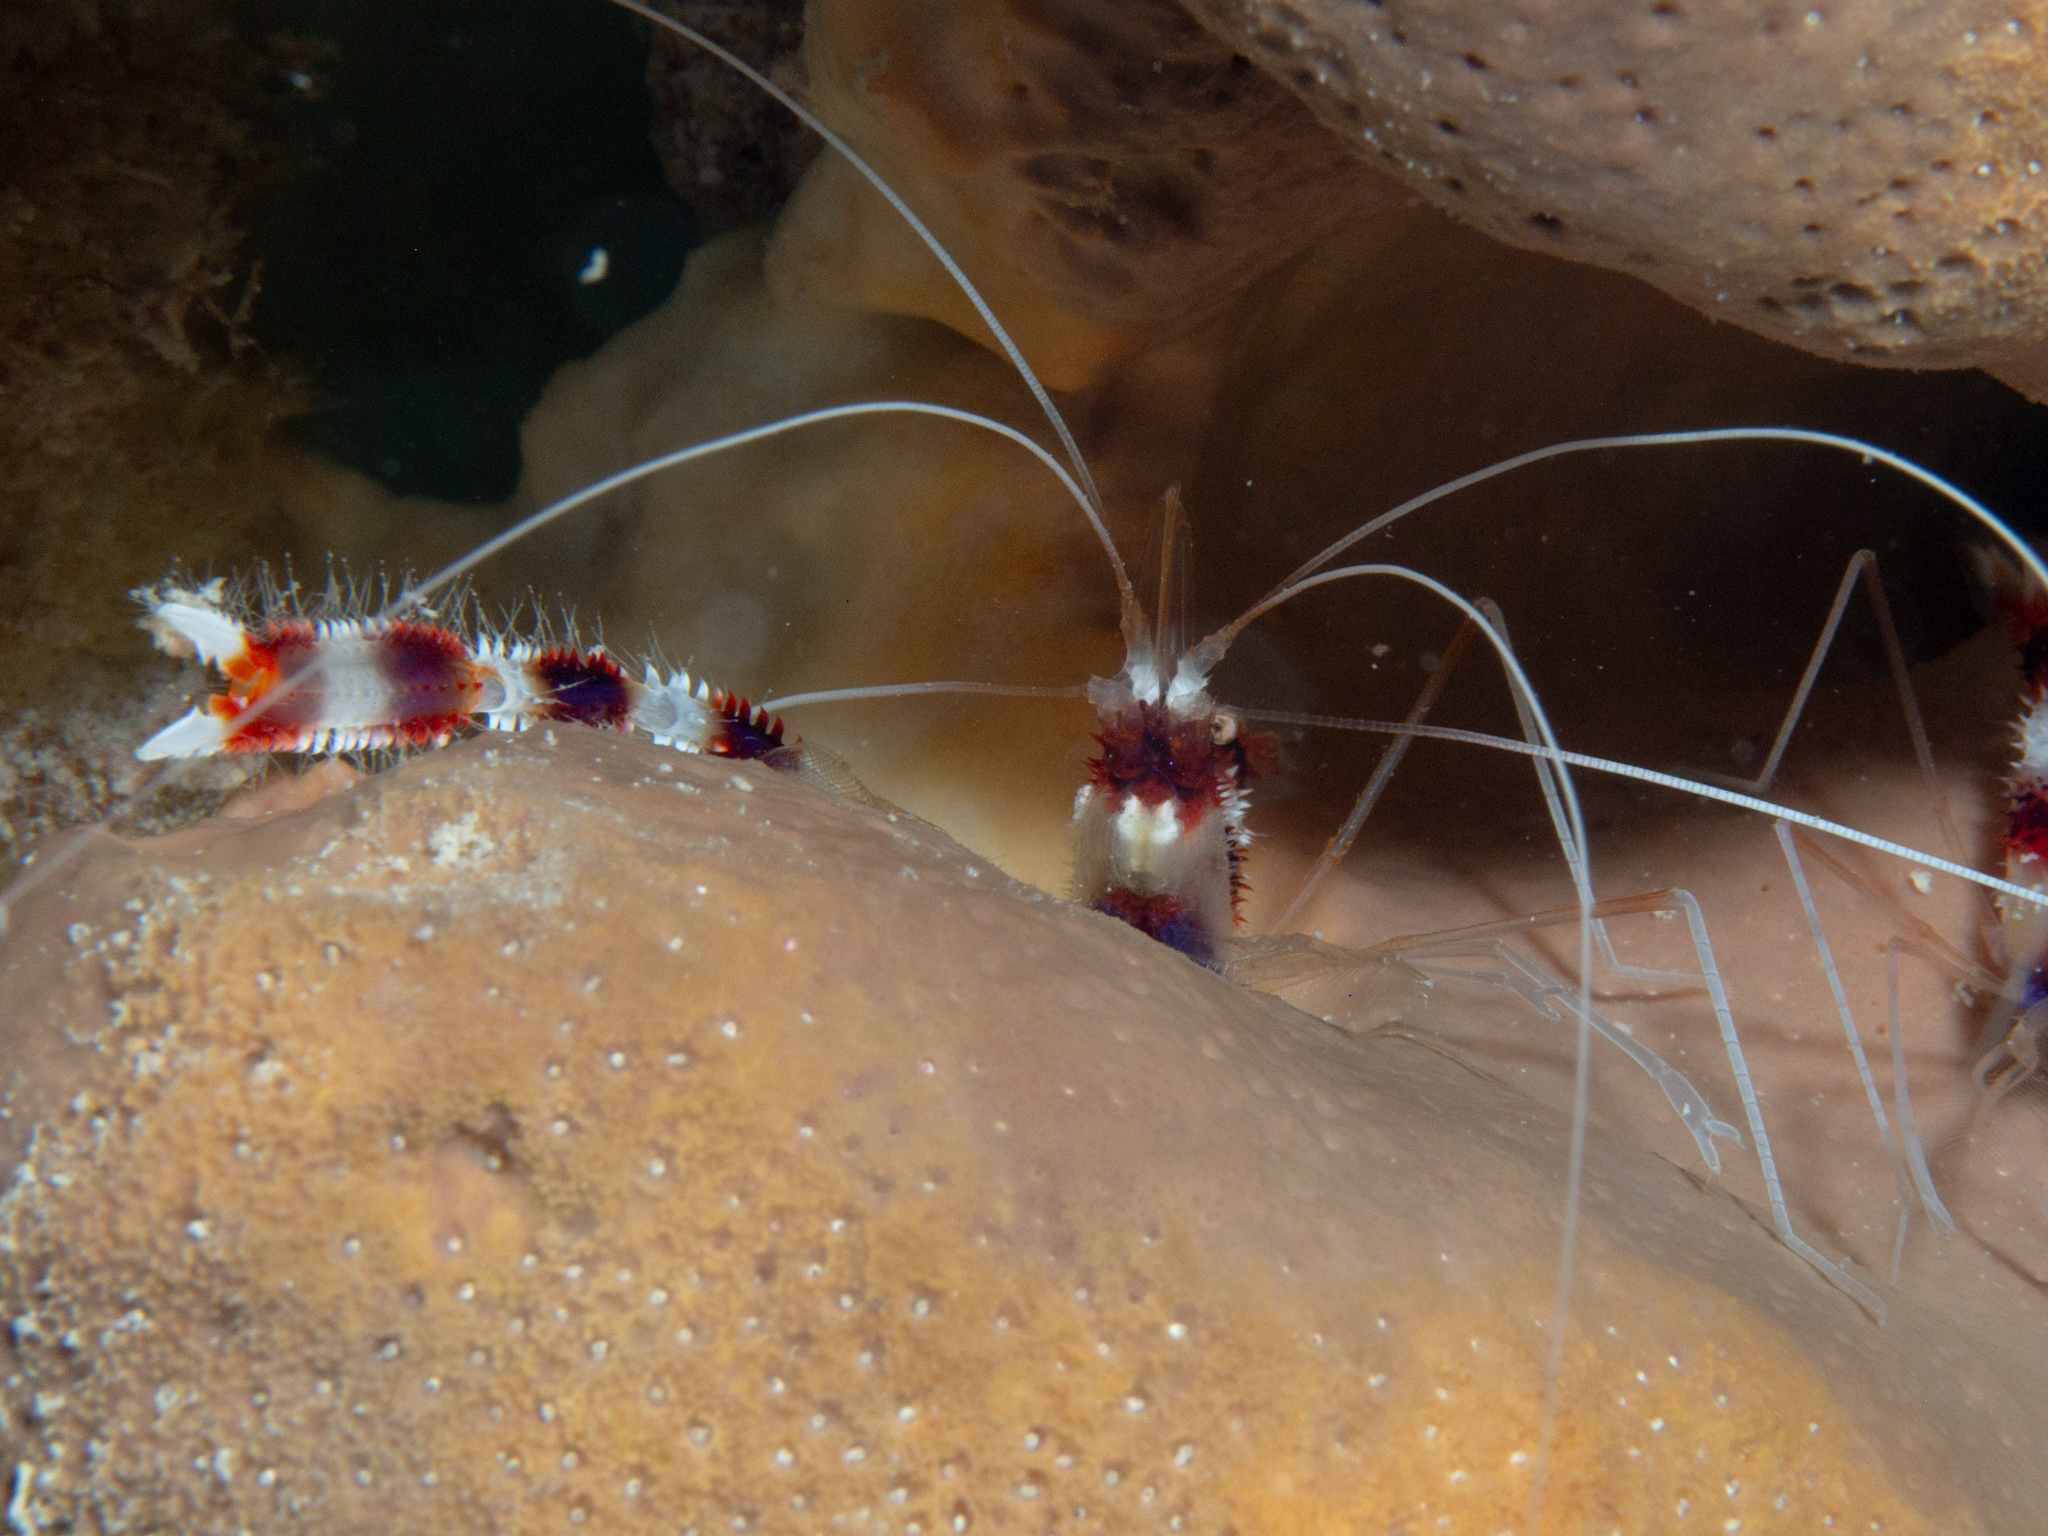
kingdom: Animalia
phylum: Arthropoda
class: Malacostraca
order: Decapoda
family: Stenopodidae
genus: Stenopus
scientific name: Stenopus hispidus
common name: Banded coral shrimp
